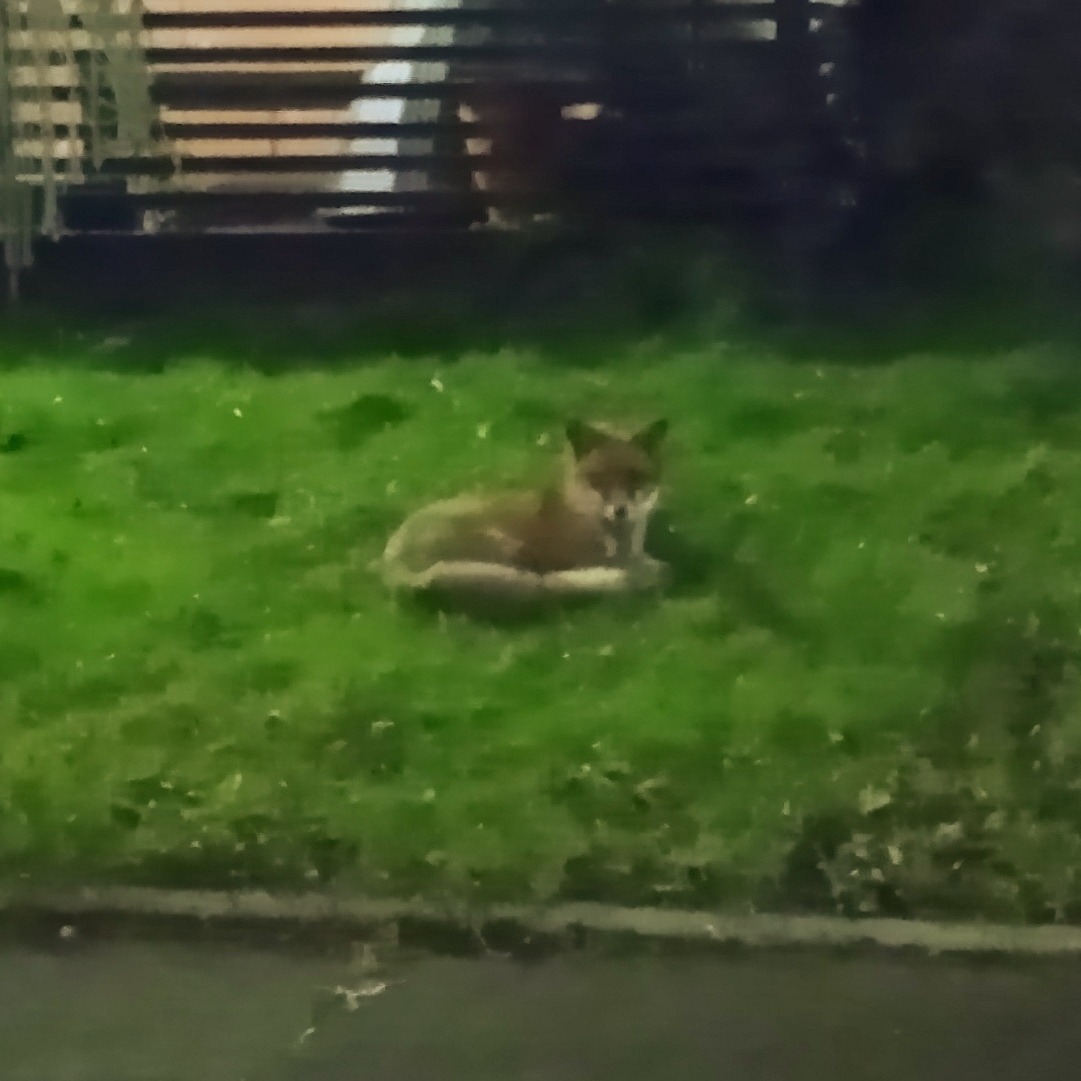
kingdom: Animalia
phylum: Chordata
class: Mammalia
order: Carnivora
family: Canidae
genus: Vulpes
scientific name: Vulpes vulpes
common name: Red fox
